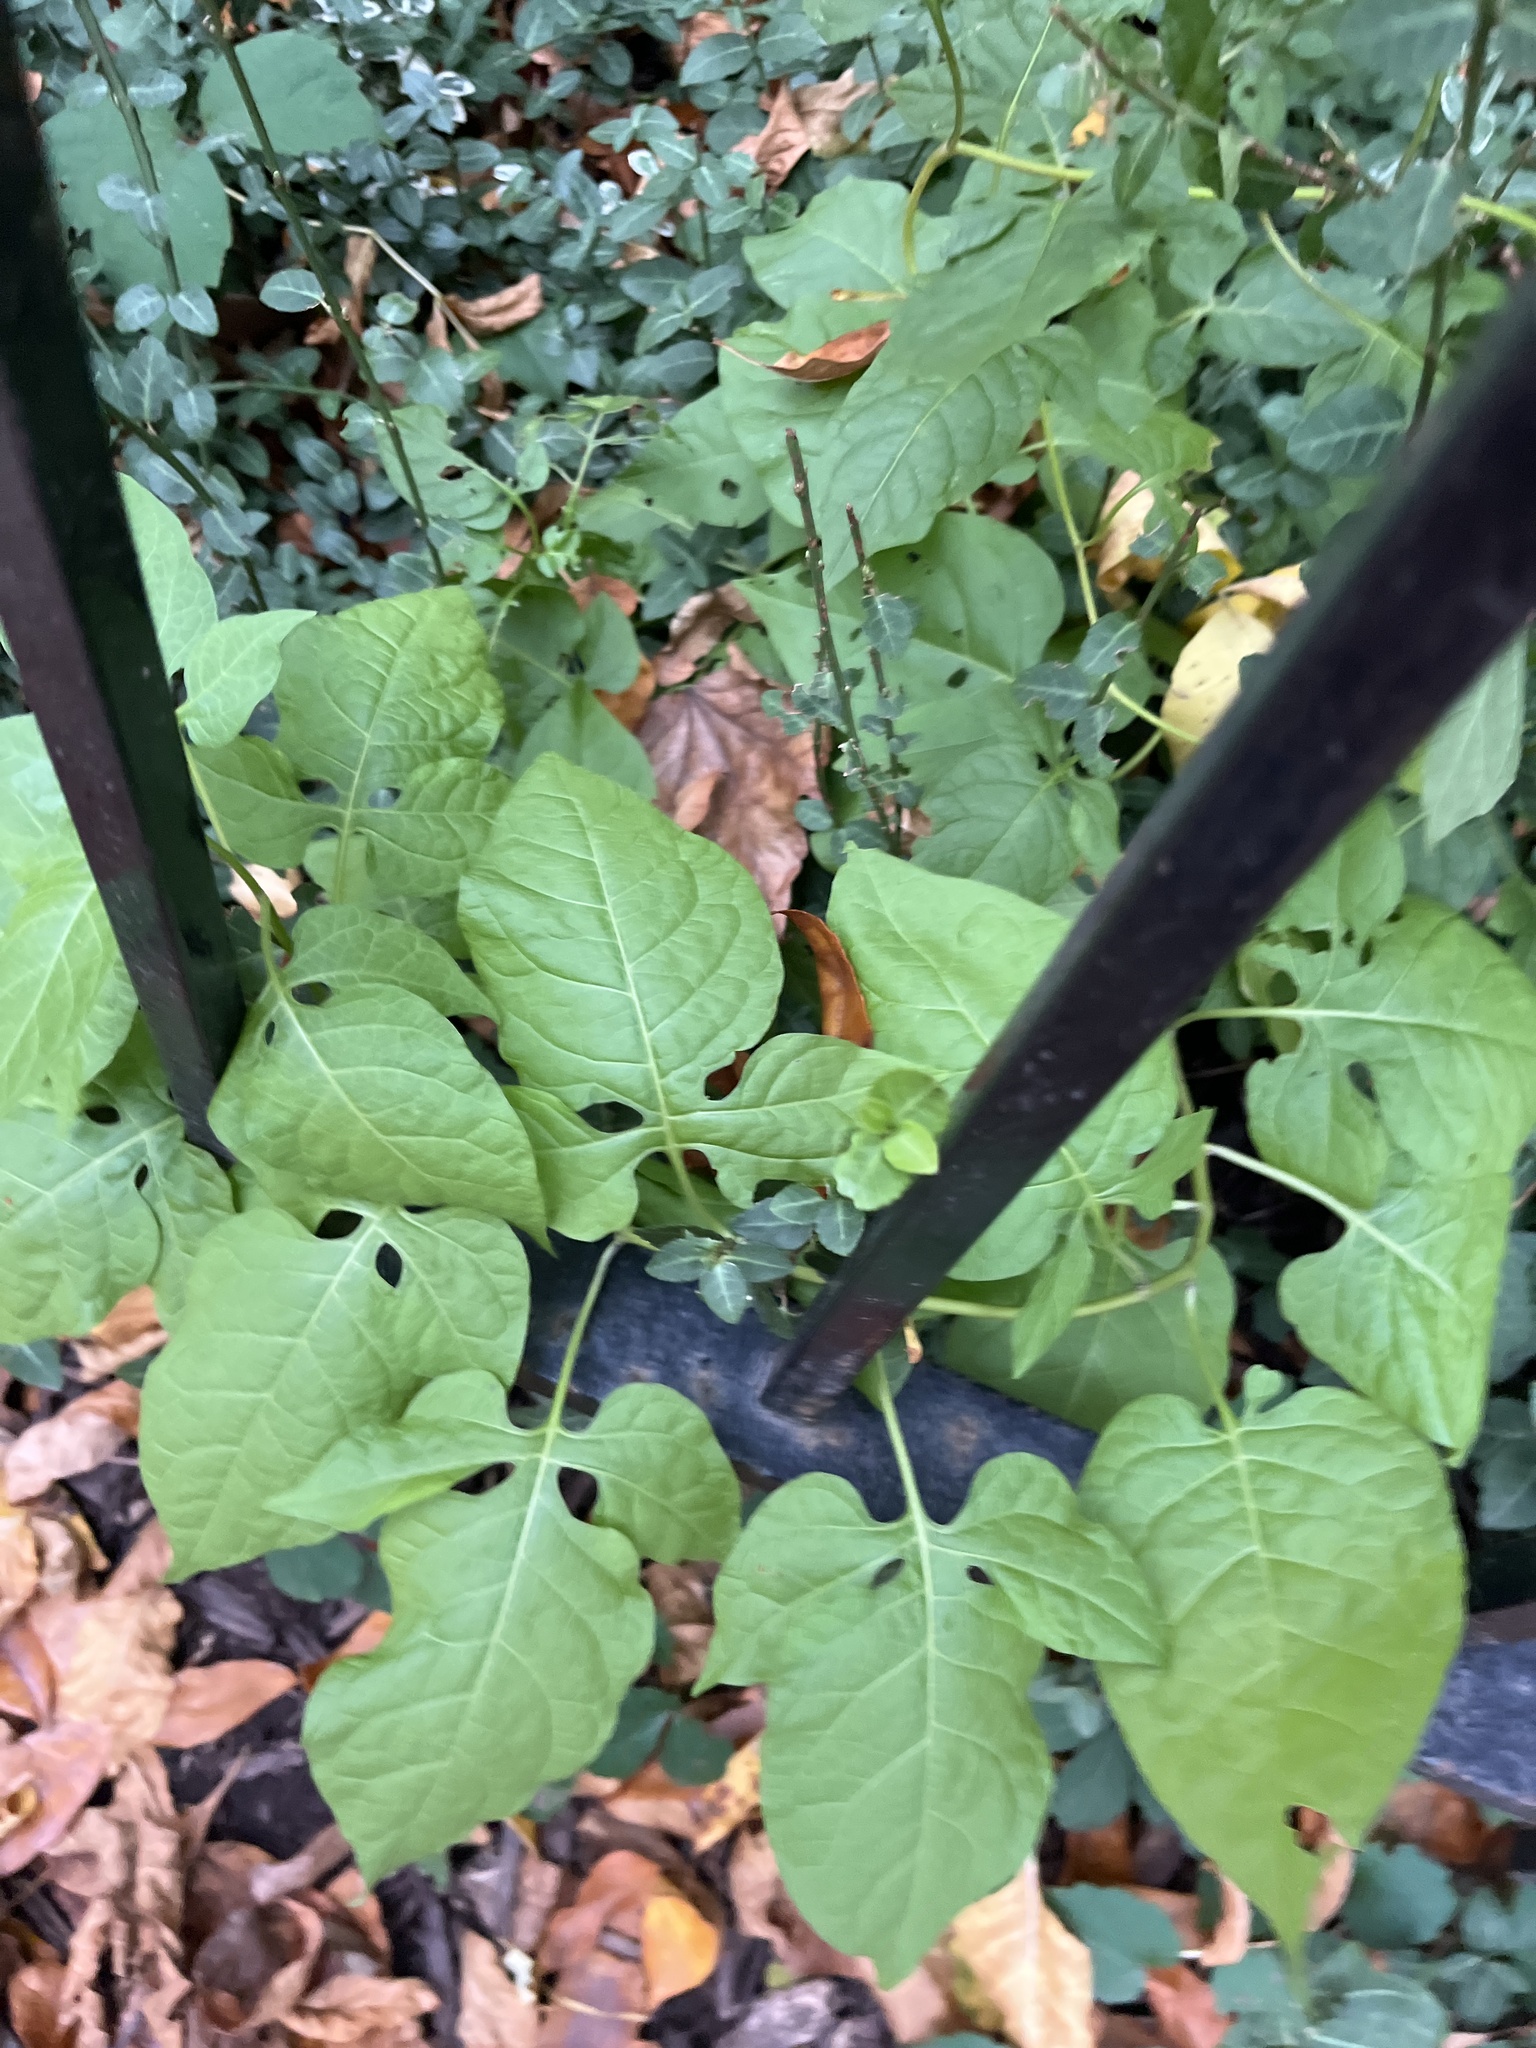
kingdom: Plantae
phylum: Tracheophyta
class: Magnoliopsida
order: Solanales
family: Solanaceae
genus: Solanum
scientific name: Solanum dulcamara
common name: Climbing nightshade
